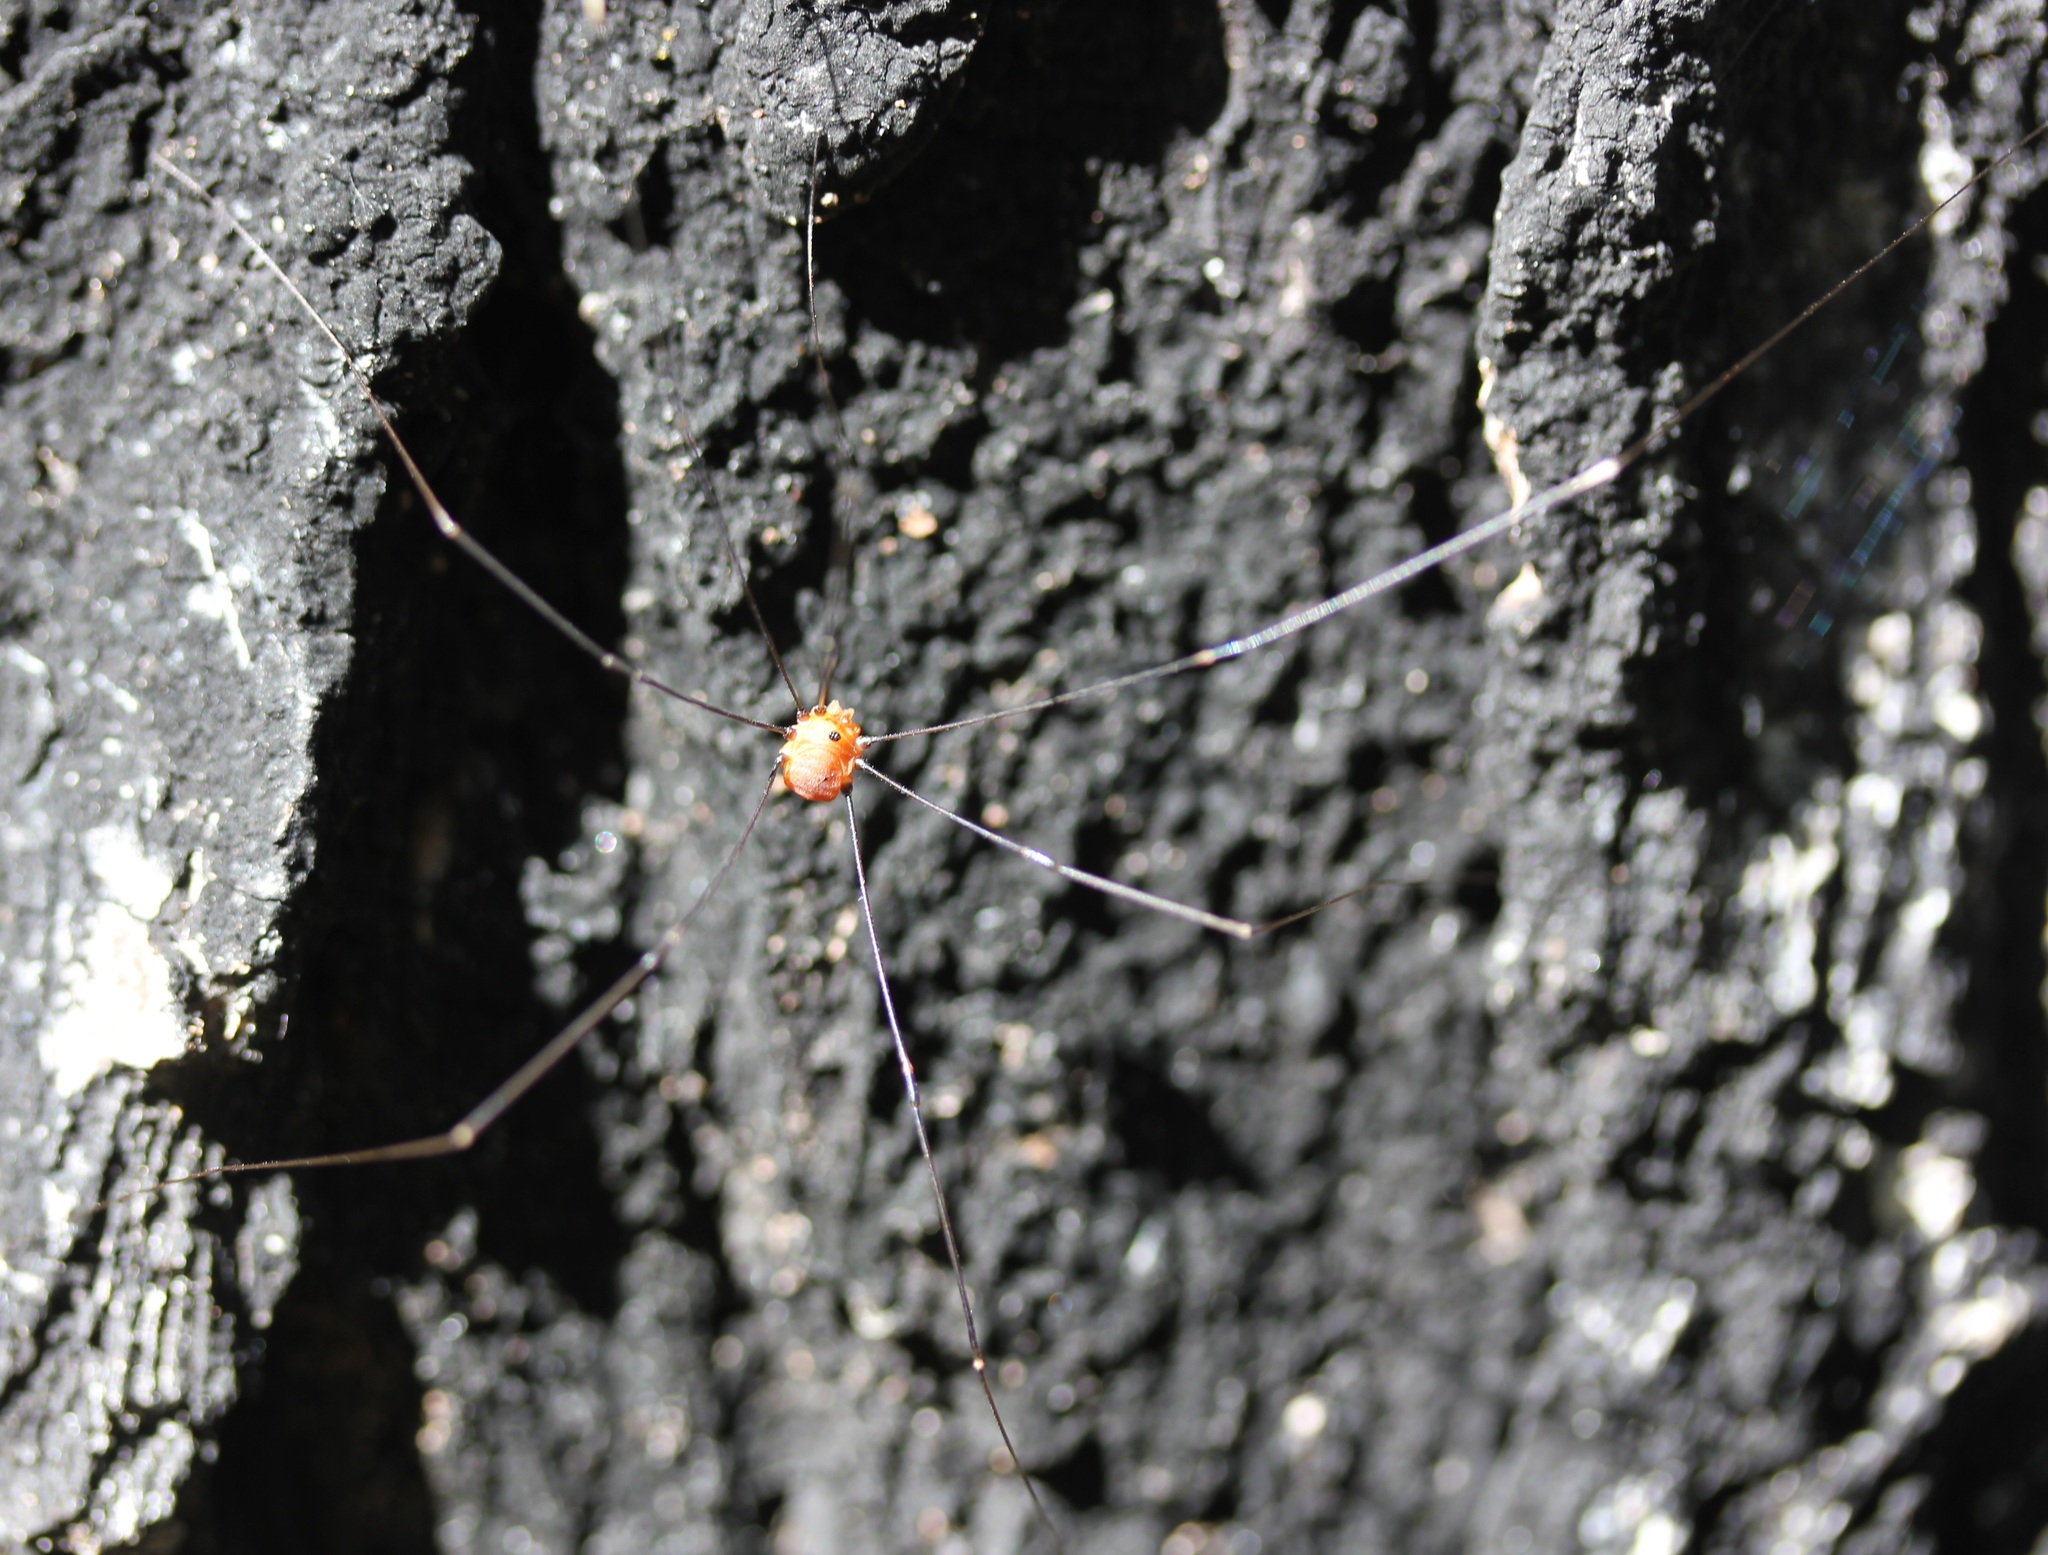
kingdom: Animalia
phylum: Arthropoda
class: Arachnida
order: Opiliones
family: Sclerosomatidae
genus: Leiobunum
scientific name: Leiobunum aldrichi
